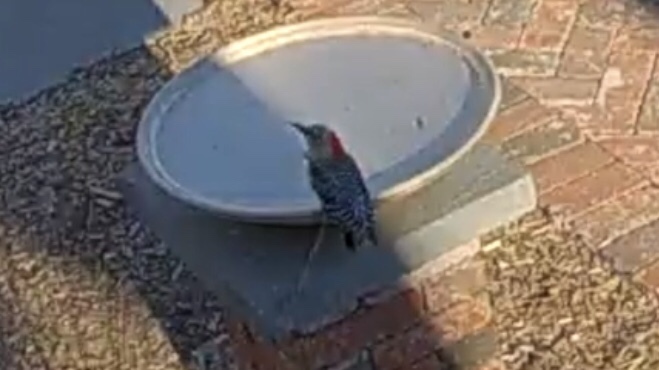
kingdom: Animalia
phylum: Chordata
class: Aves
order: Piciformes
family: Picidae
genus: Melanerpes
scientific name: Melanerpes carolinus
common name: Red-bellied woodpecker
